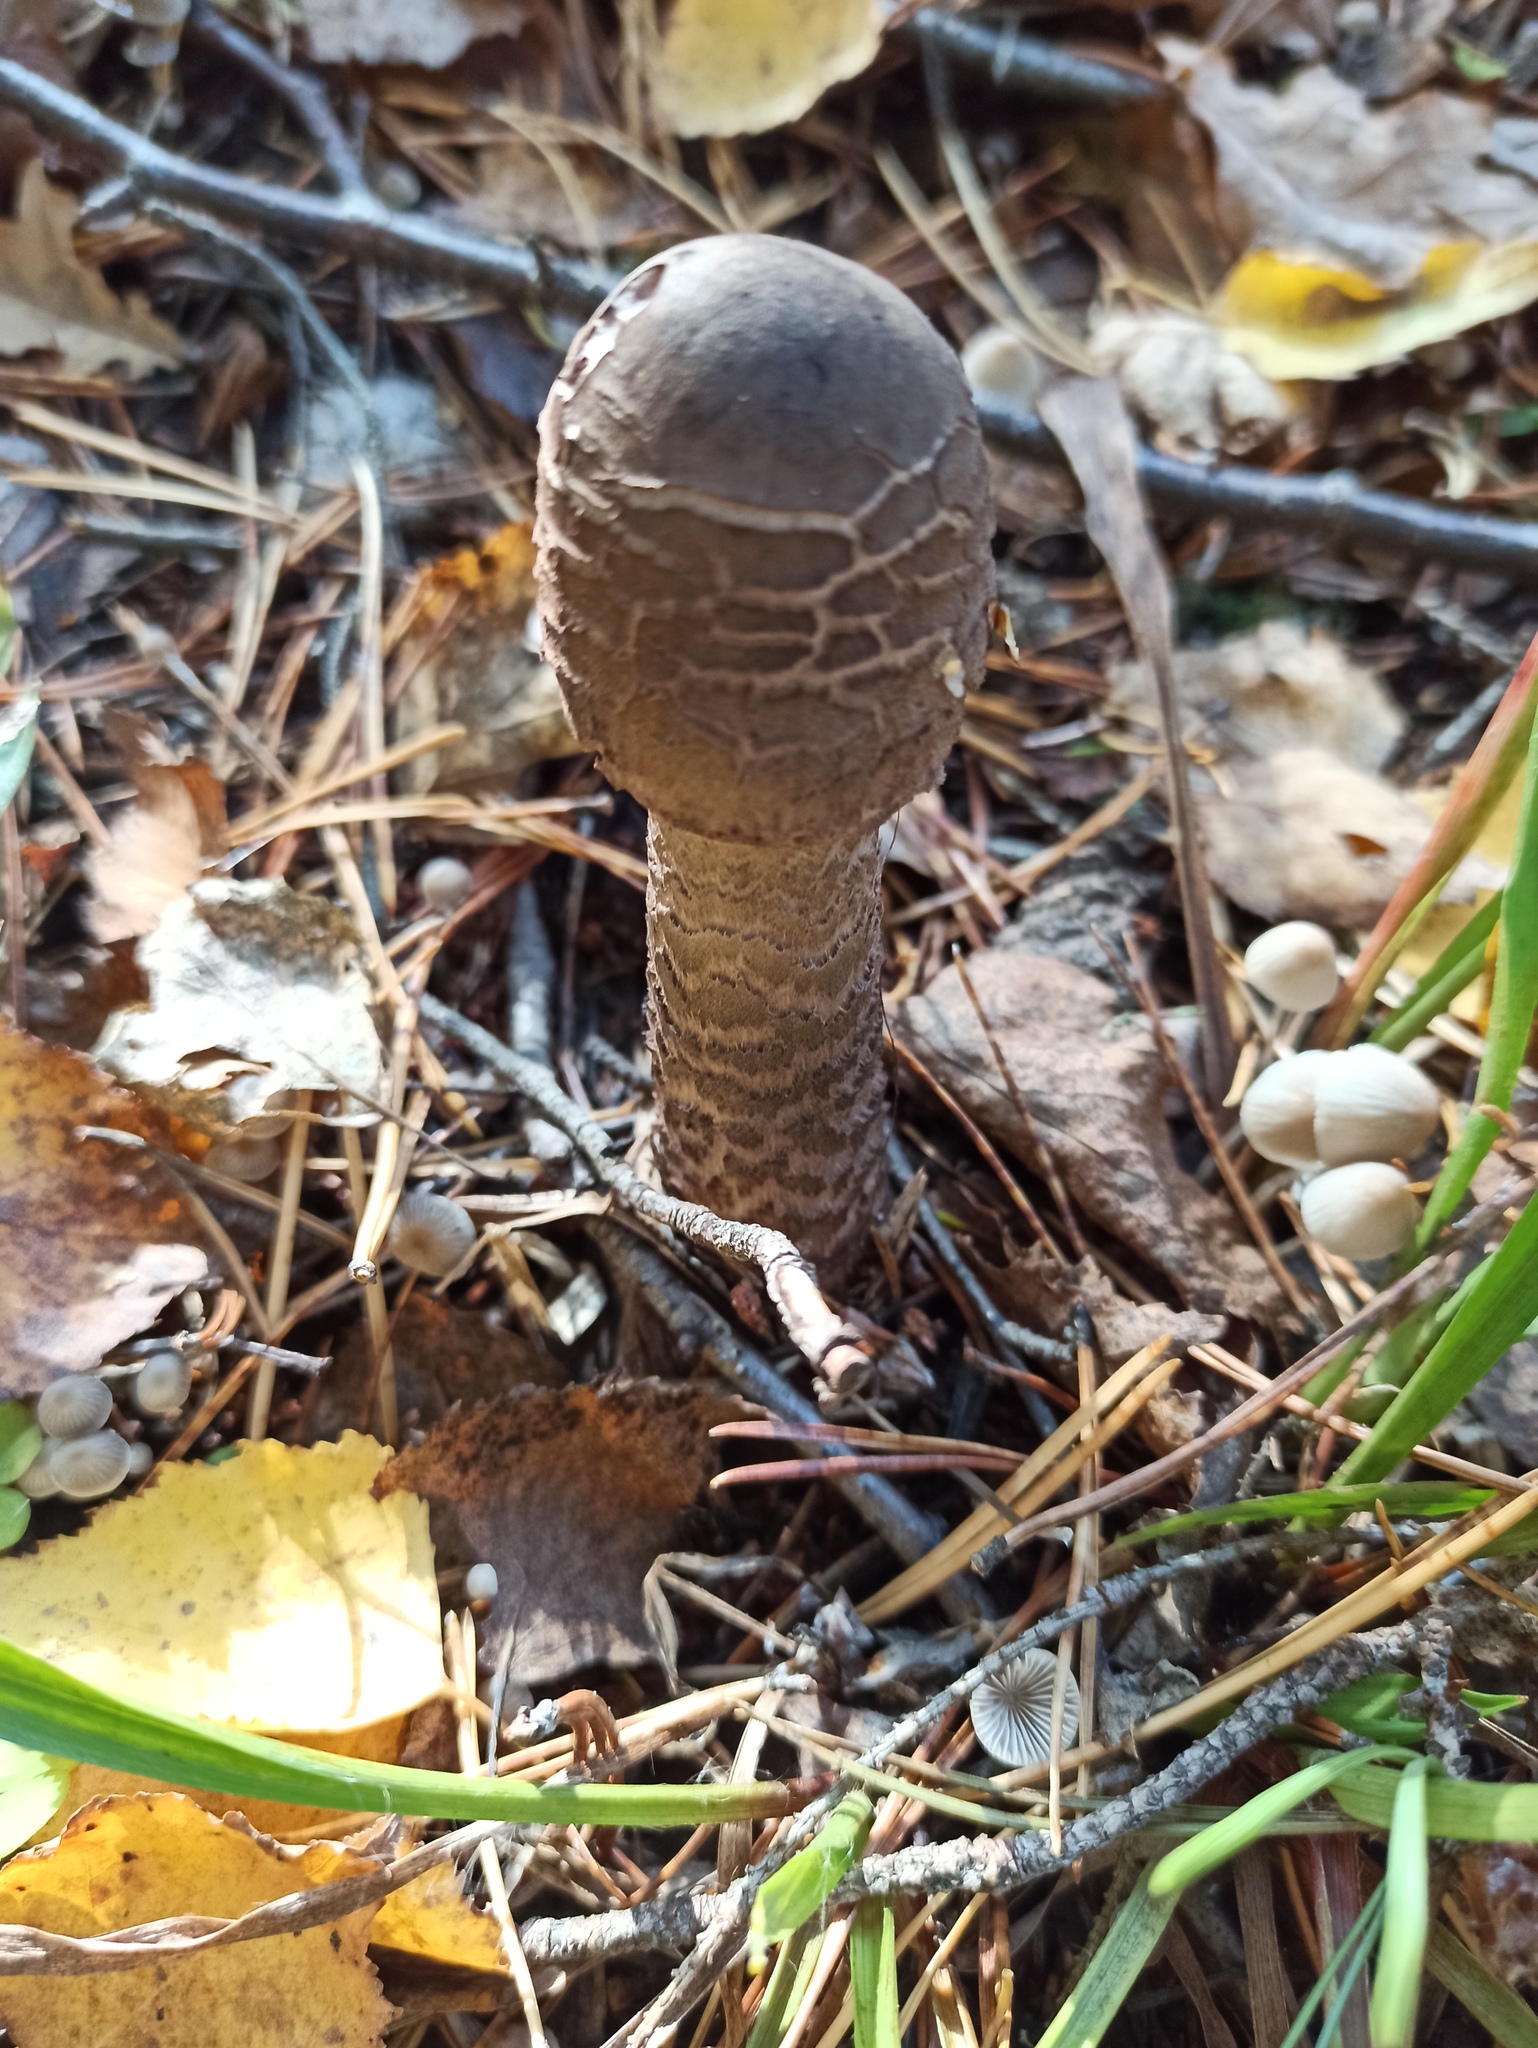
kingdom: Fungi
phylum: Basidiomycota
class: Agaricomycetes
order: Agaricales
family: Agaricaceae
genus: Macrolepiota
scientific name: Macrolepiota procera
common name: Parasol
